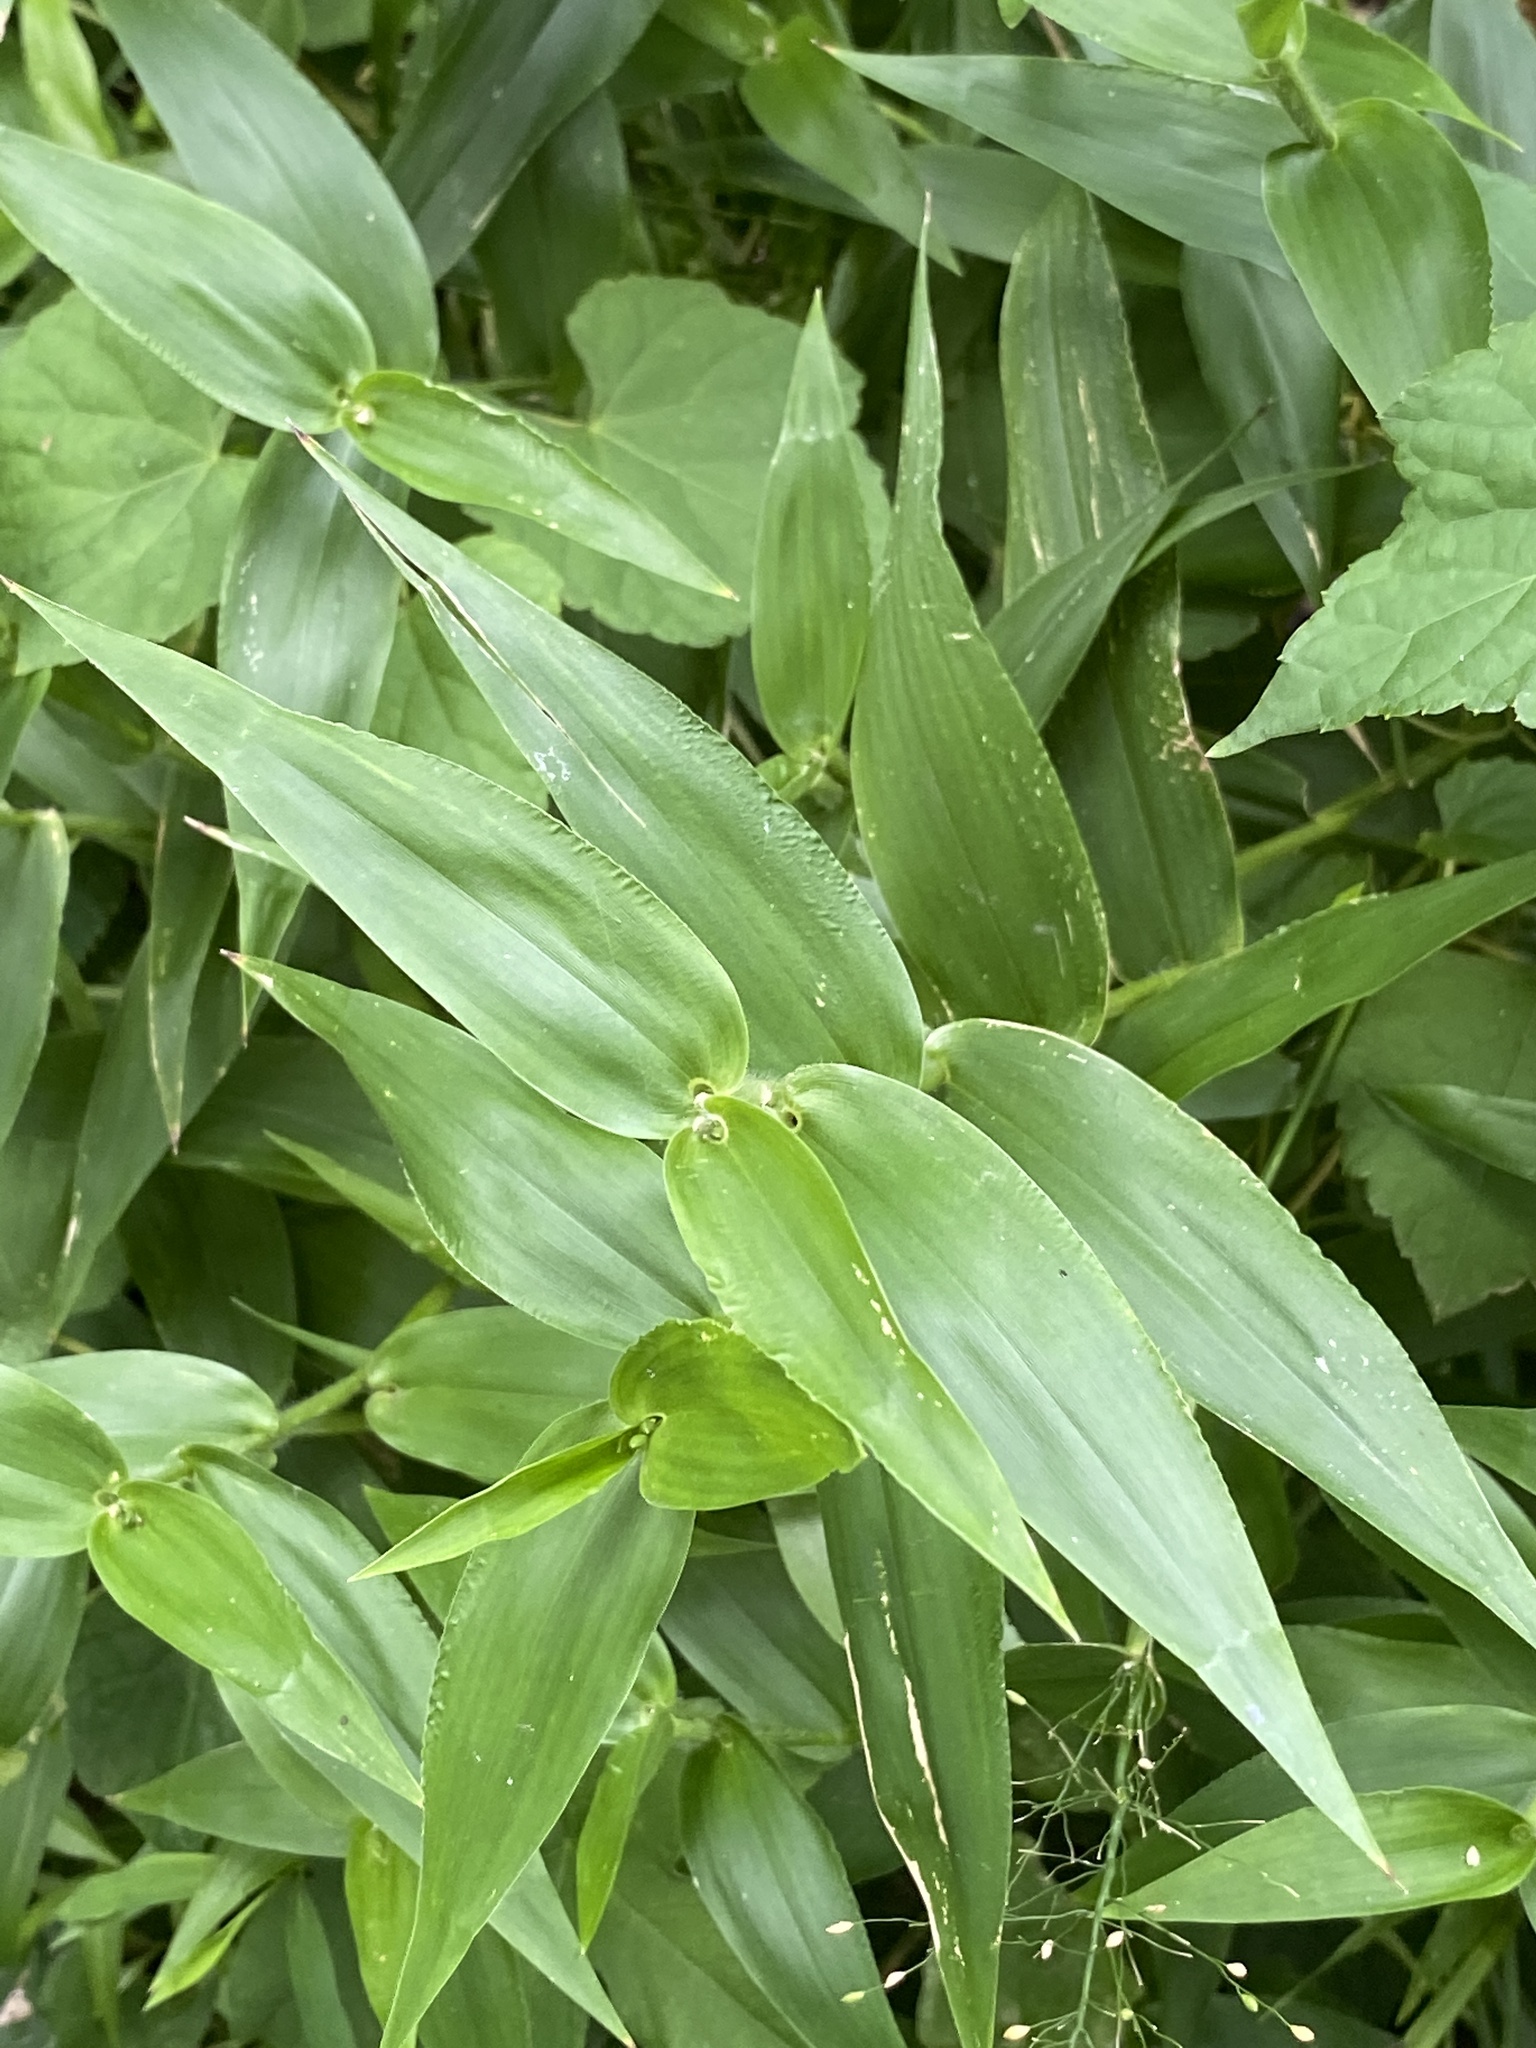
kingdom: Plantae
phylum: Tracheophyta
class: Liliopsida
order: Poales
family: Poaceae
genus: Dichanthelium
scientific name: Dichanthelium clandestinum
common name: Deer-tongue grass
